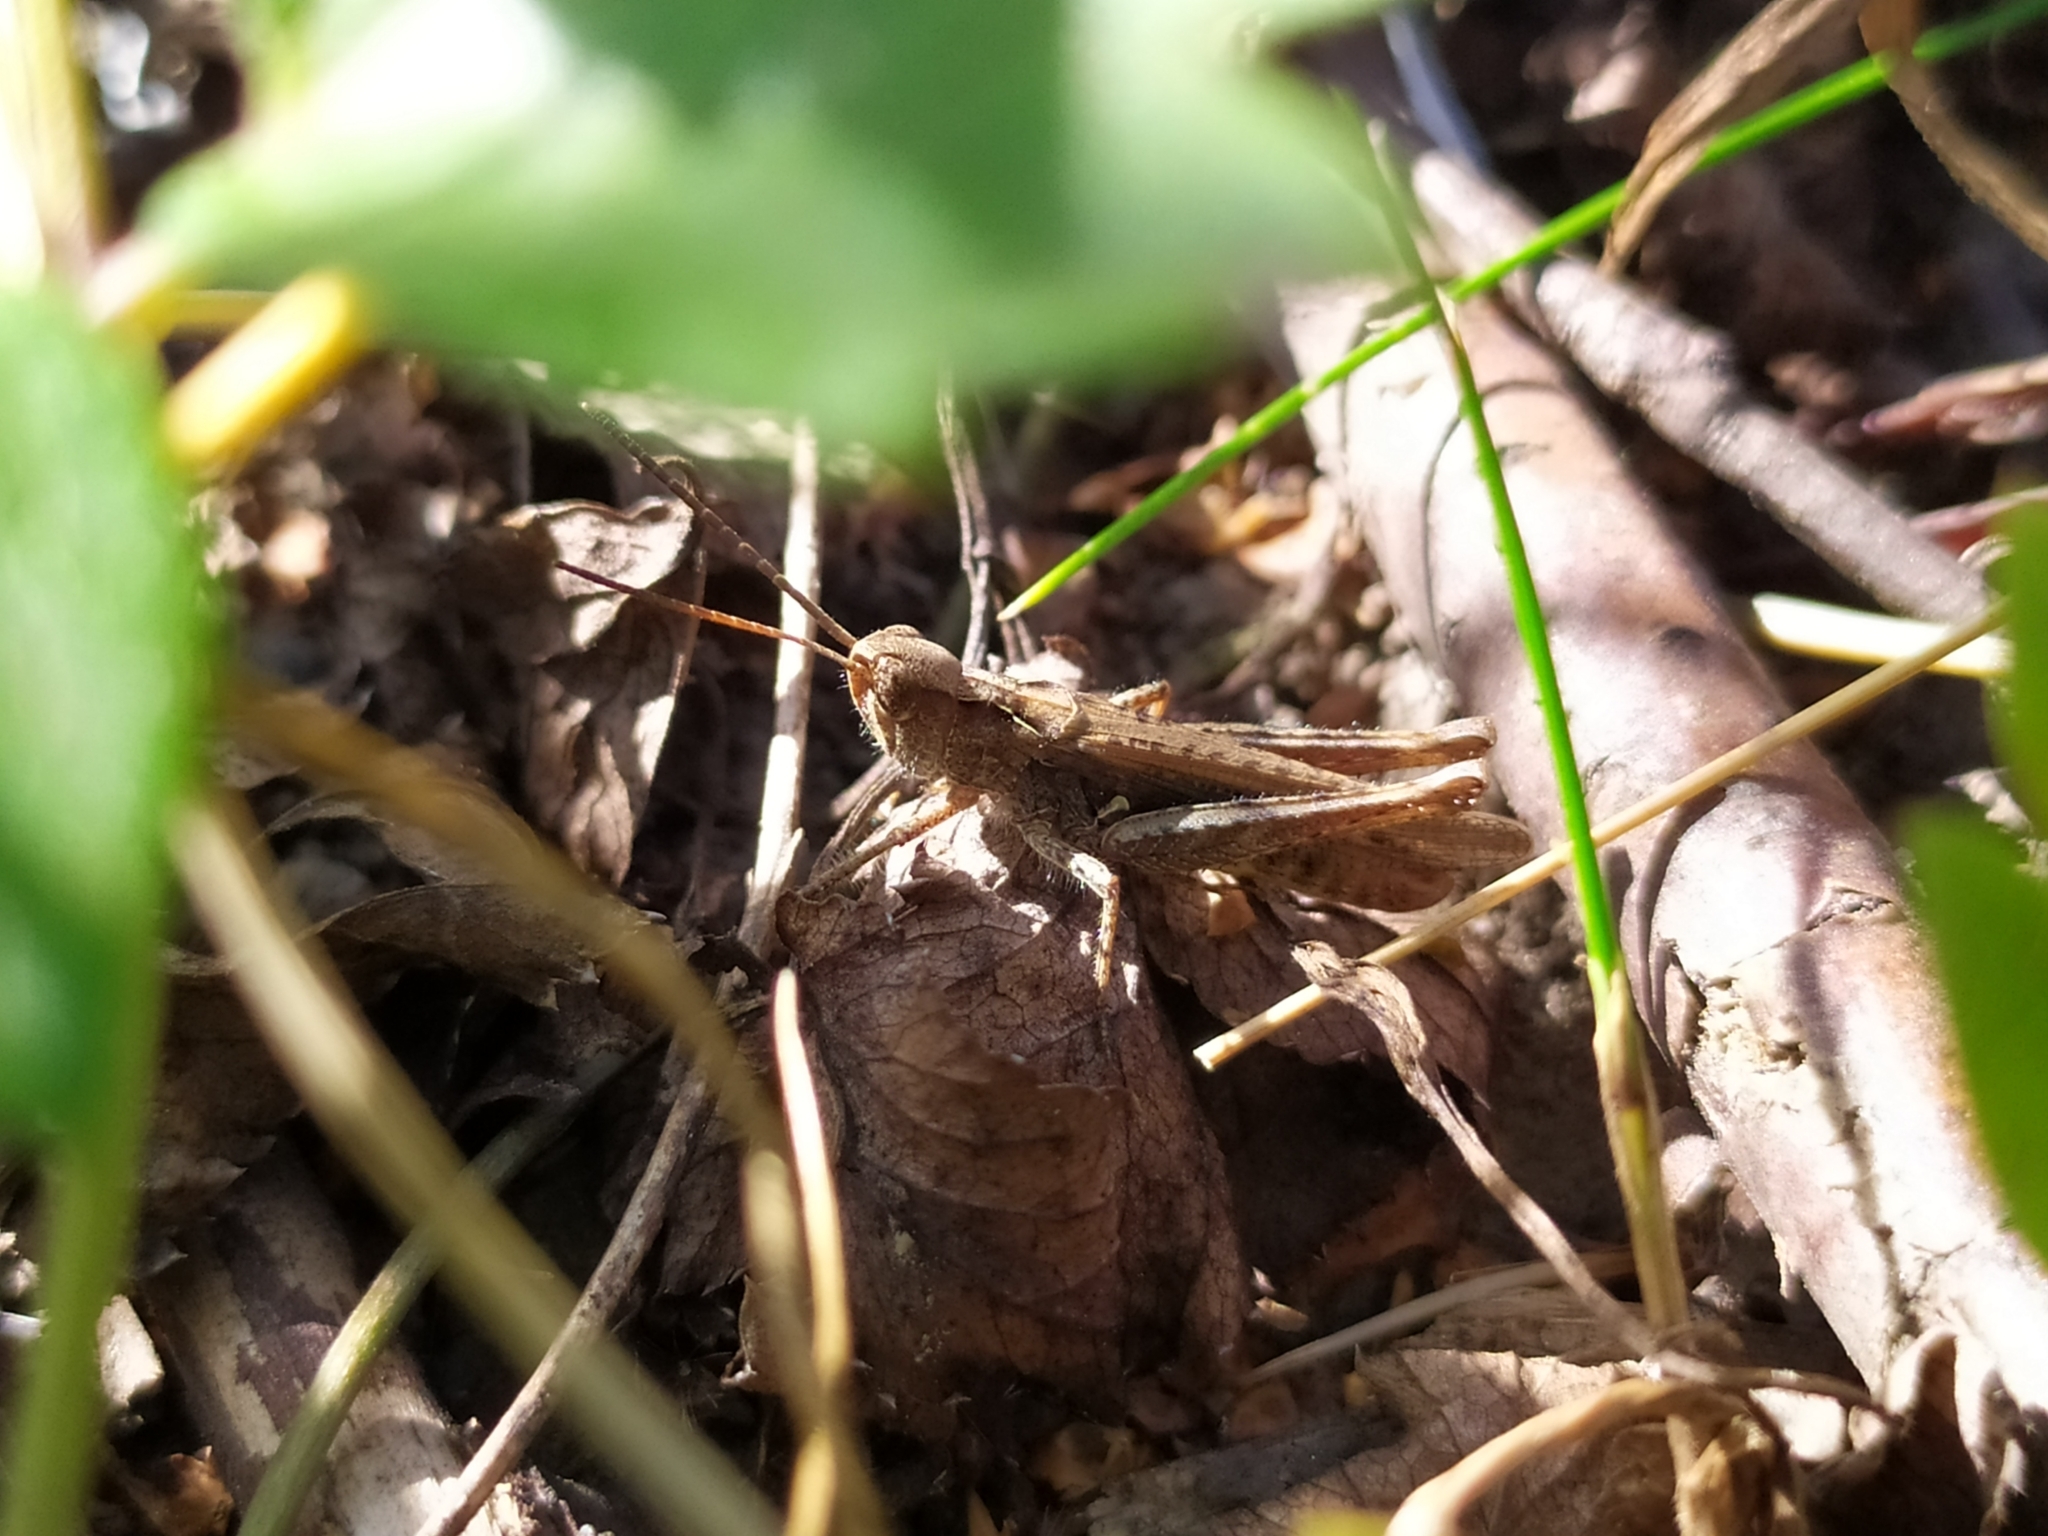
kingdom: Animalia
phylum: Arthropoda
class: Insecta
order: Orthoptera
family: Acrididae
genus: Chorthippus
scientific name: Chorthippus mollis
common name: Lesser field grasshopper
